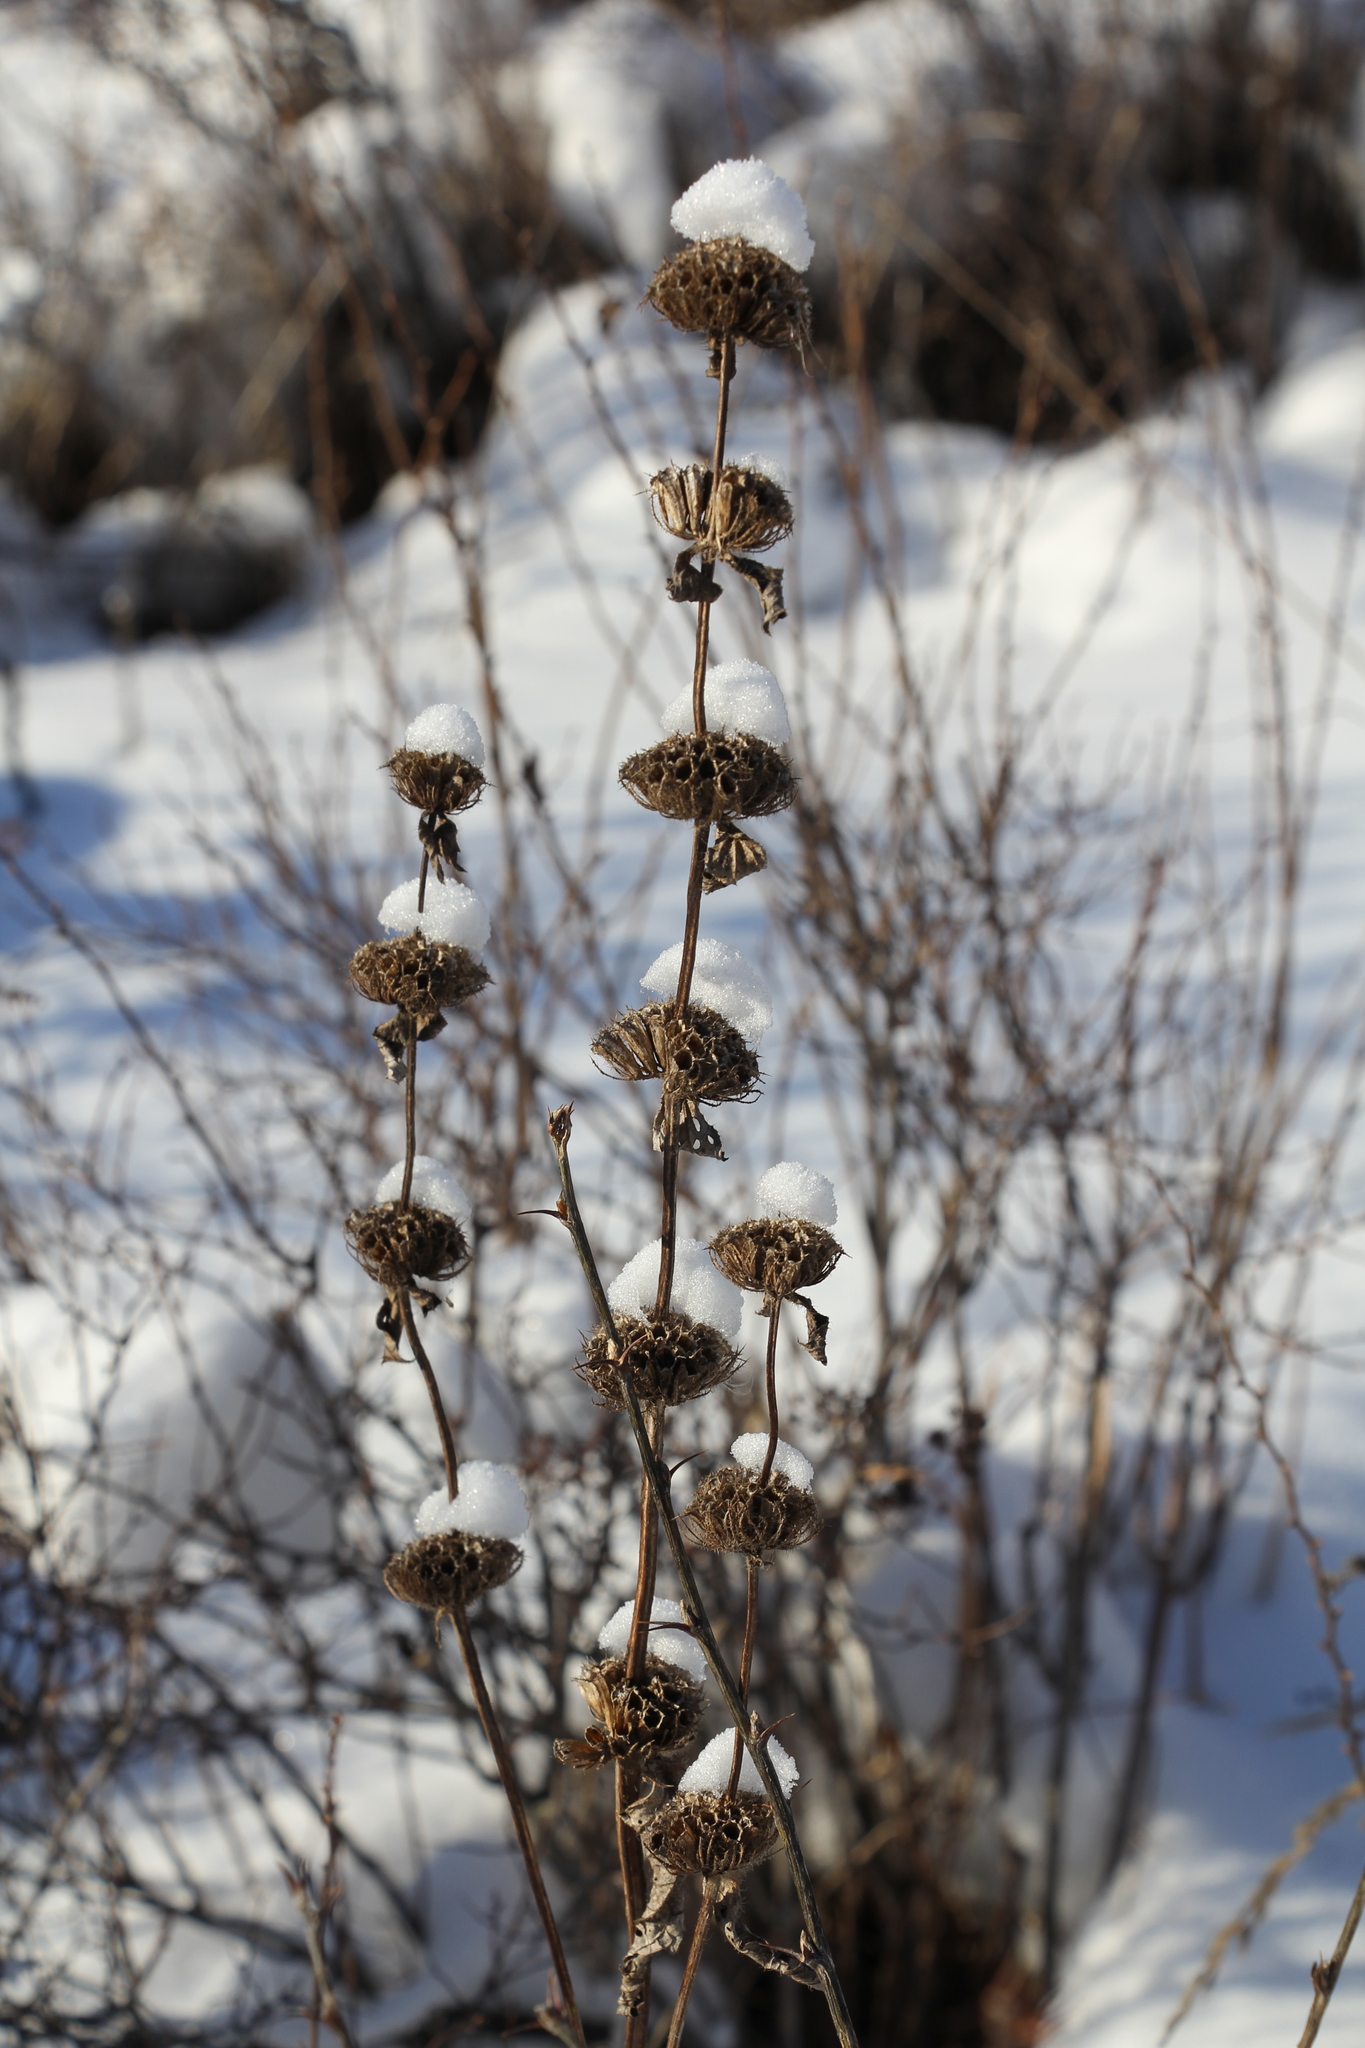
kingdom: Plantae
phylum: Tracheophyta
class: Magnoliopsida
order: Lamiales
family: Lamiaceae
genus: Phlomoides
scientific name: Phlomoides tuberosa
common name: Tuberous jerusalem sage
